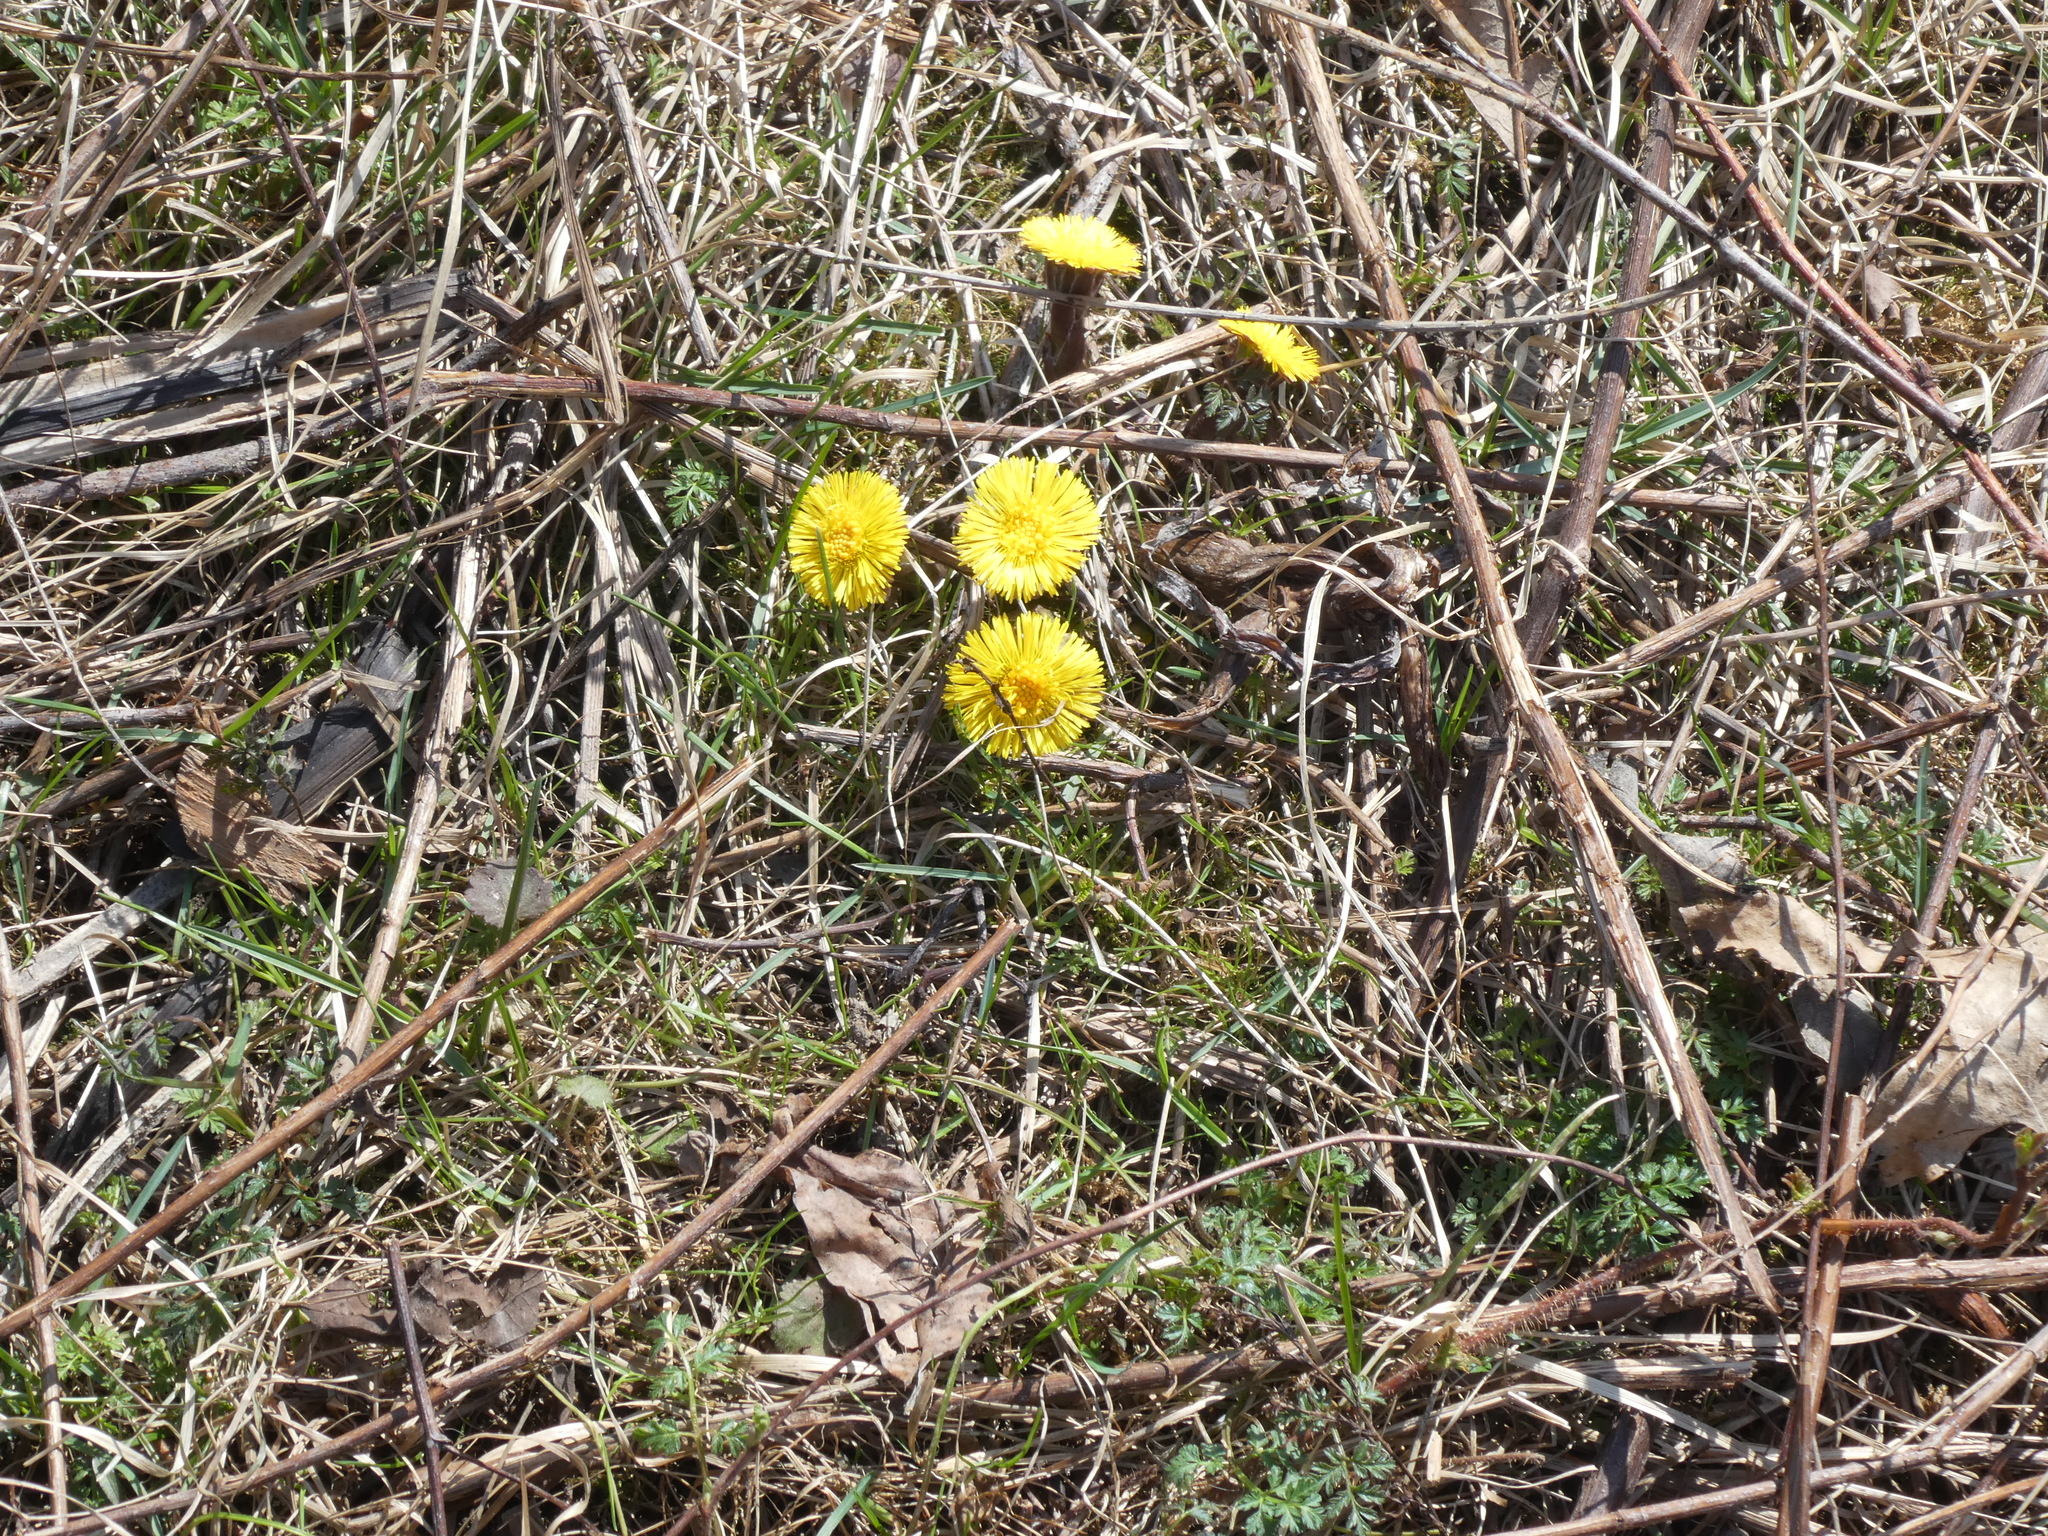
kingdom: Plantae
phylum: Tracheophyta
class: Magnoliopsida
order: Asterales
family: Asteraceae
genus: Tussilago
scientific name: Tussilago farfara
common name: Coltsfoot
